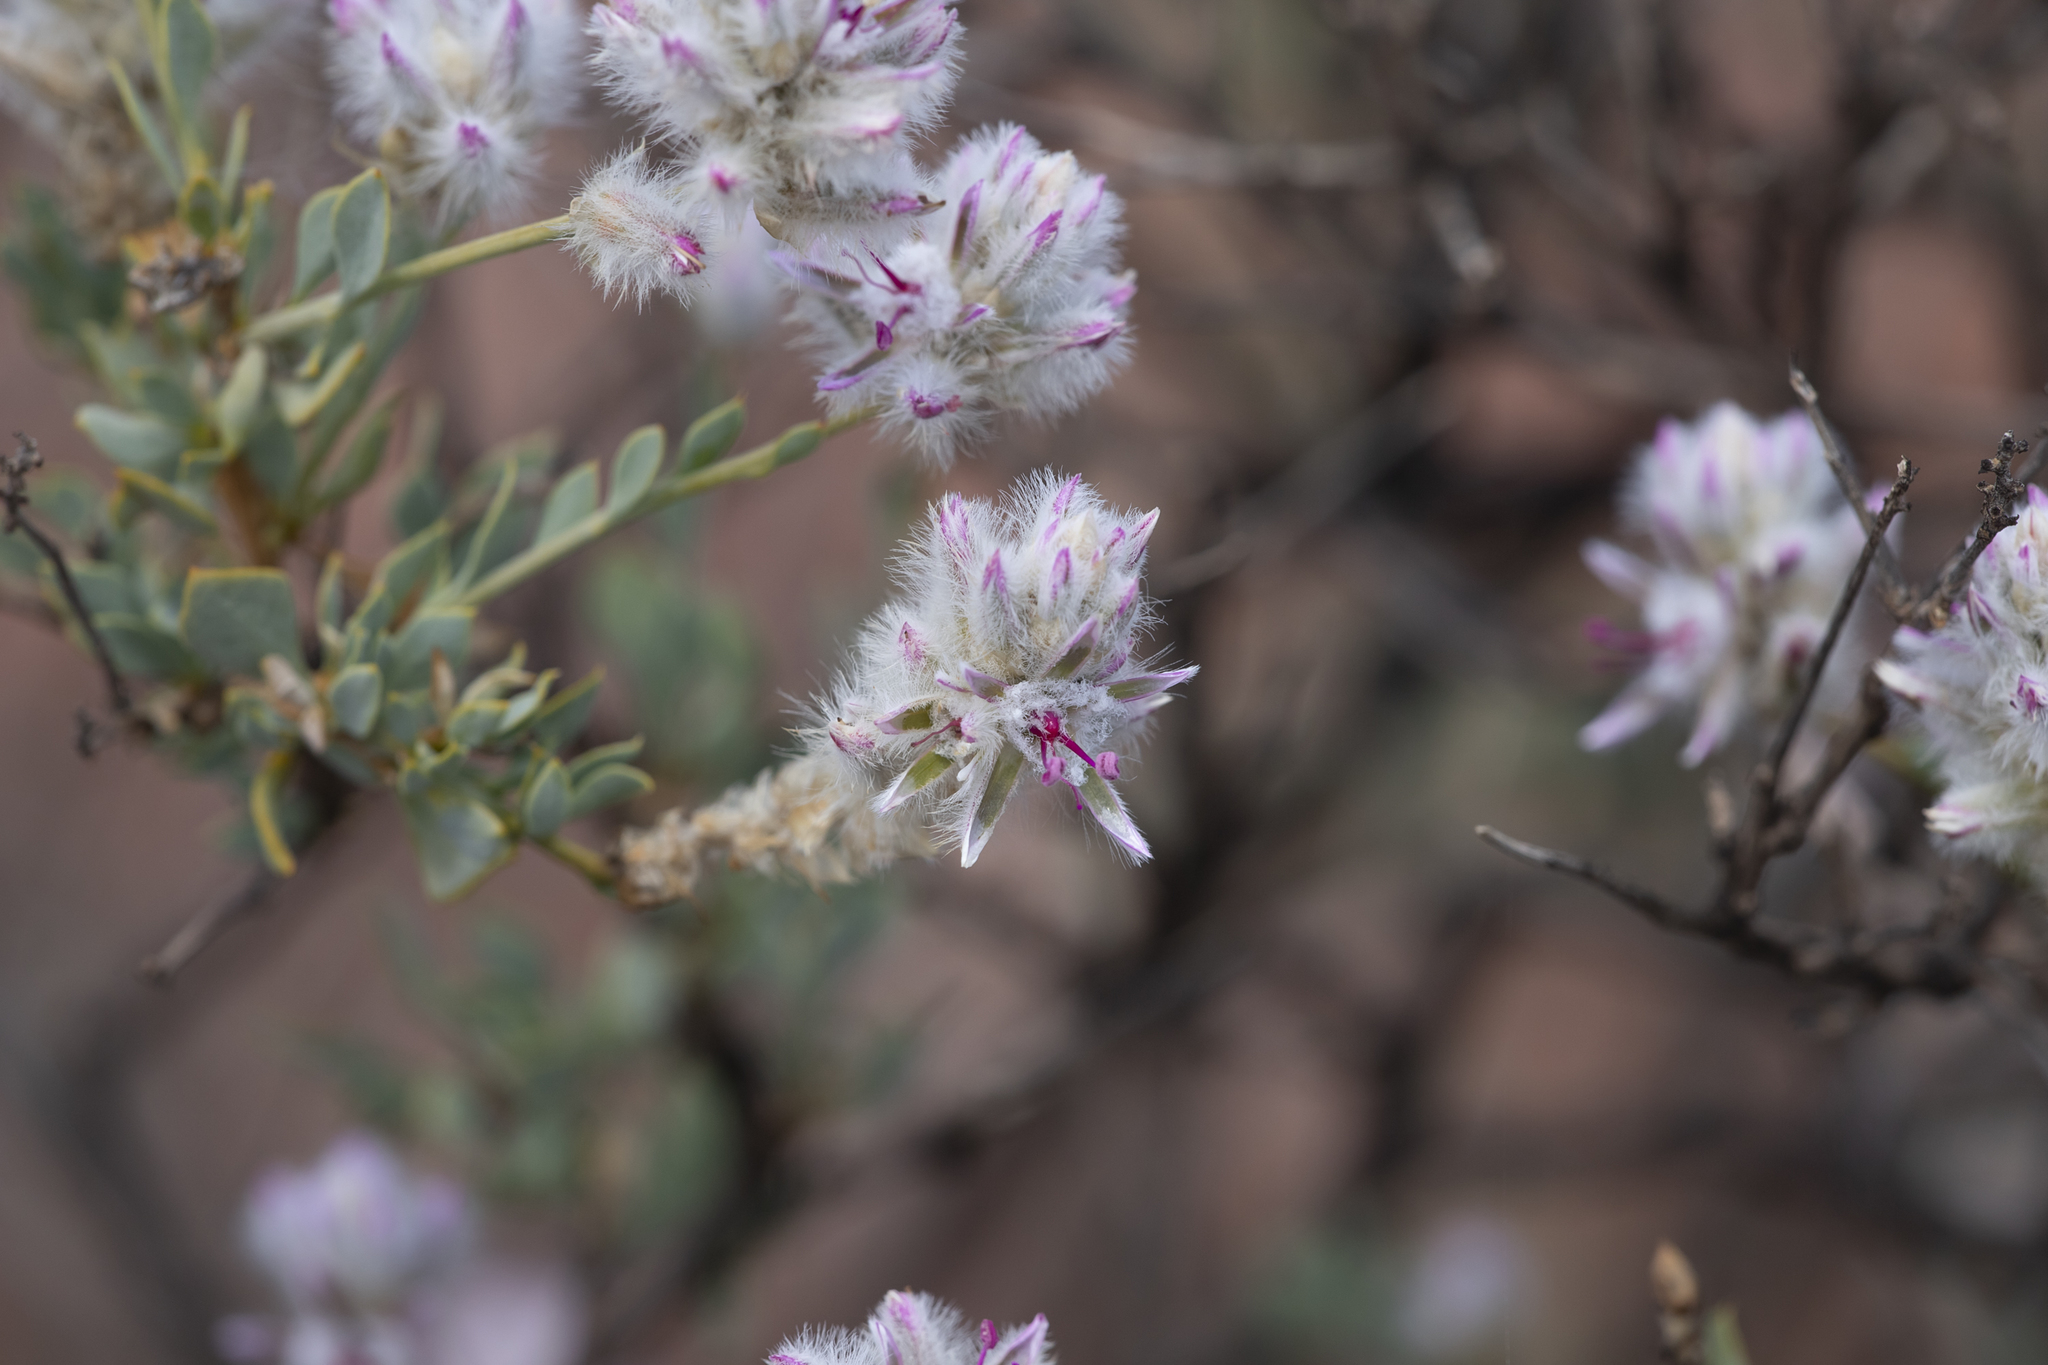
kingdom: Plantae
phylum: Tracheophyta
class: Magnoliopsida
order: Caryophyllales
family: Amaranthaceae
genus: Ptilotus
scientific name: Ptilotus whitei
